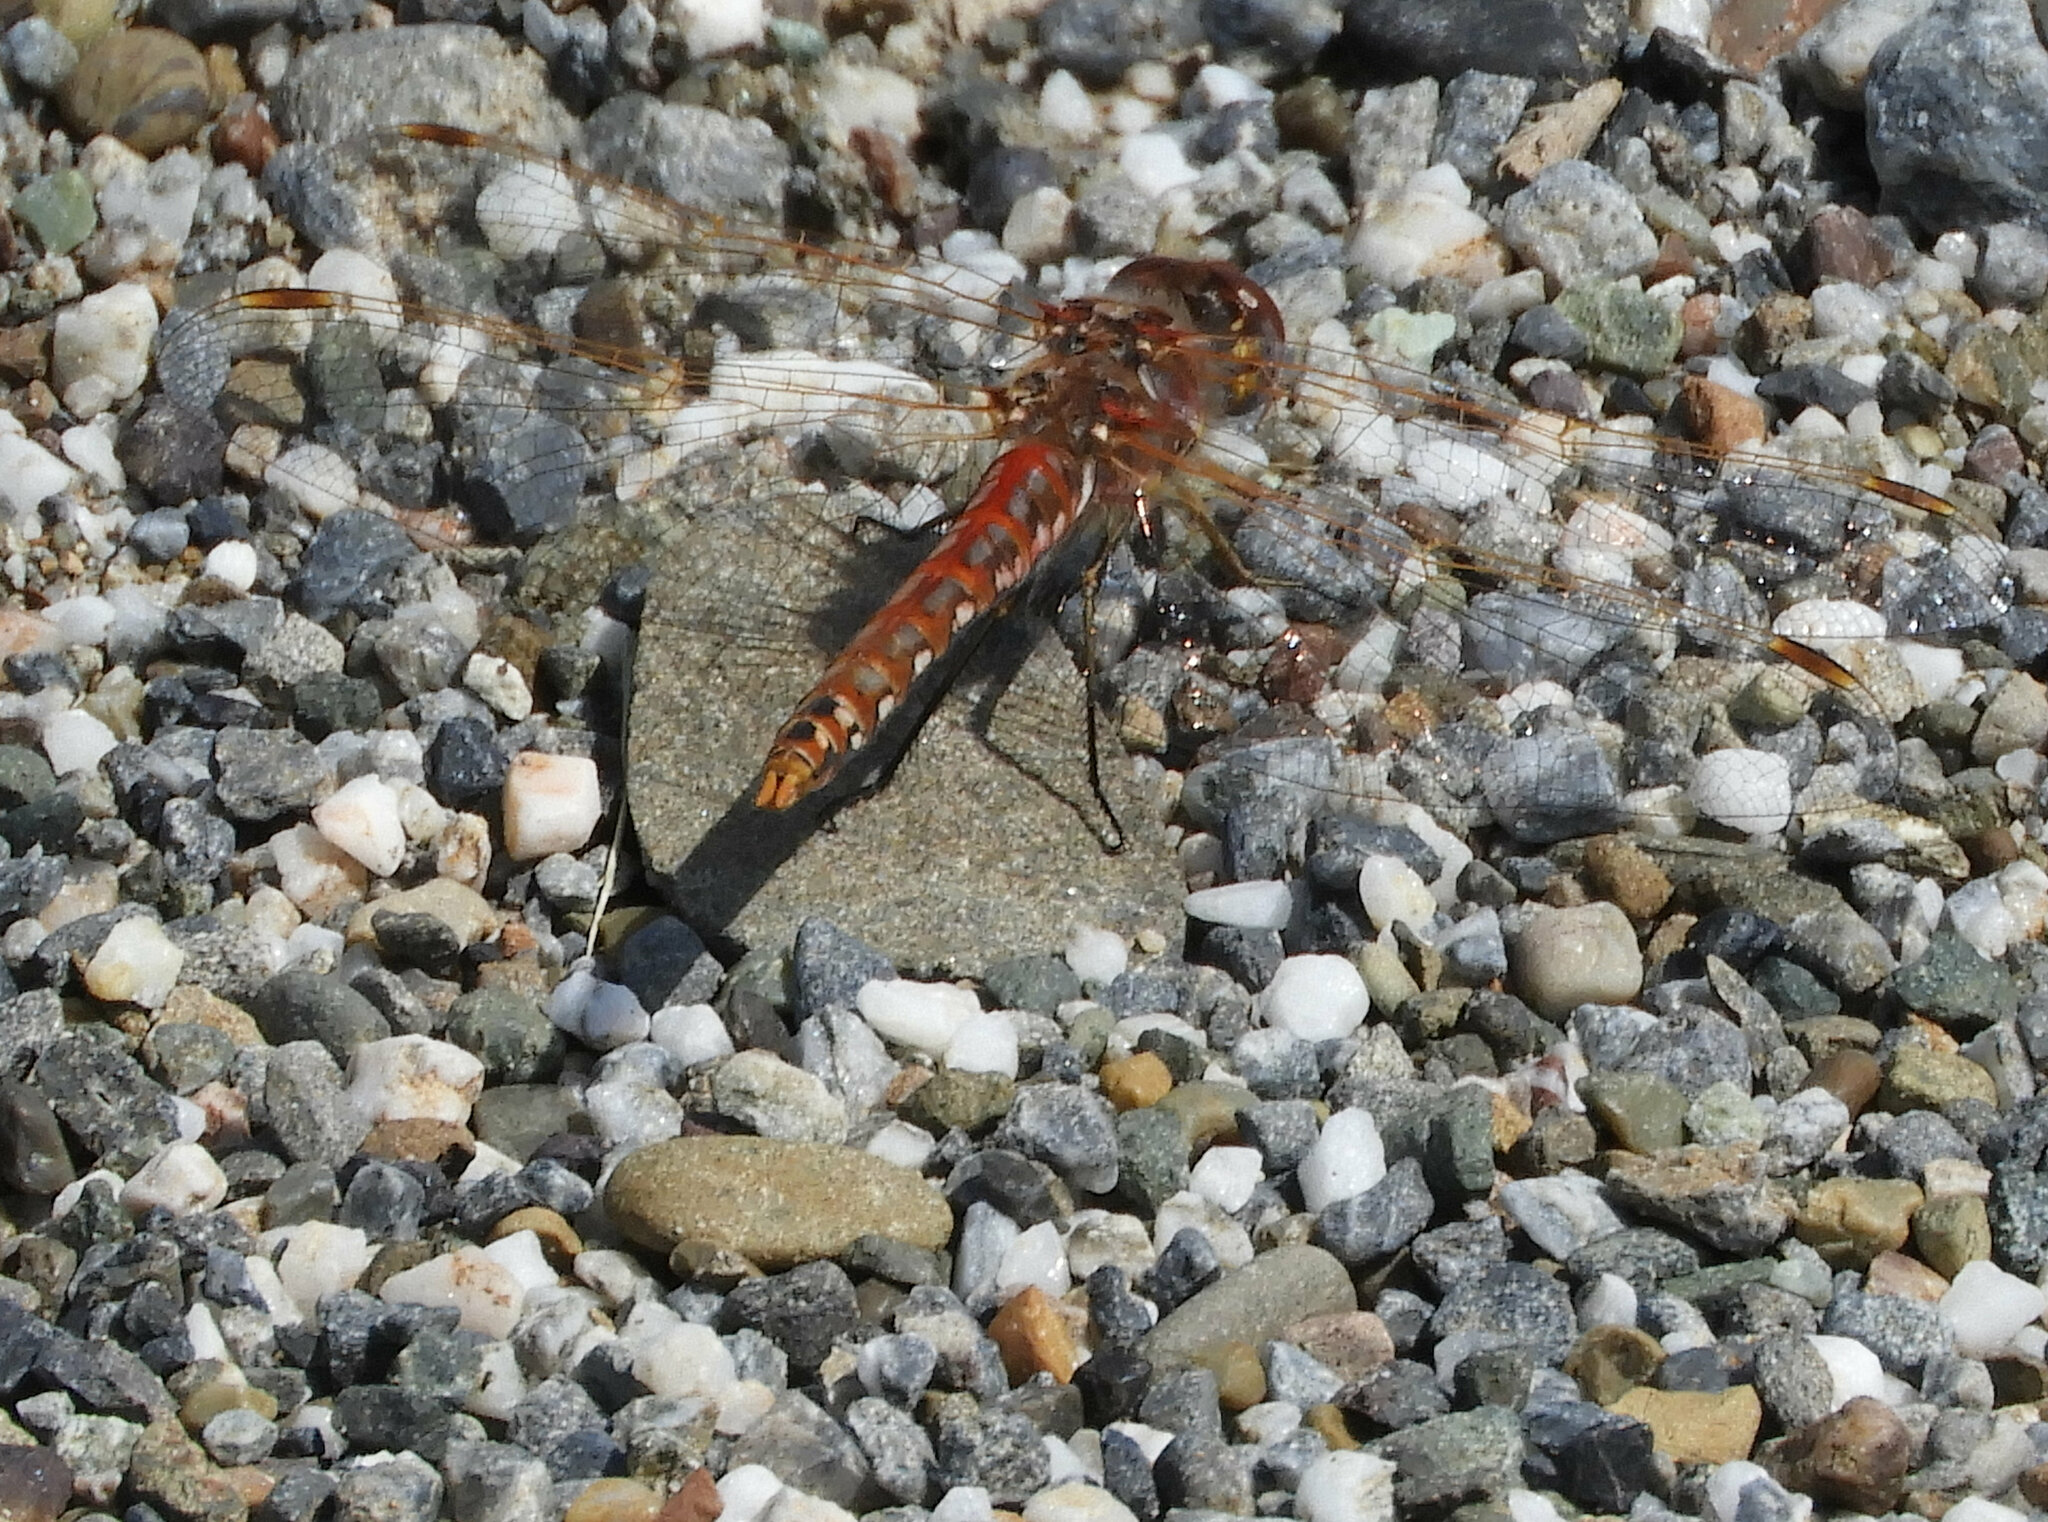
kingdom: Animalia
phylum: Arthropoda
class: Insecta
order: Odonata
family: Libellulidae
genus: Sympetrum
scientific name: Sympetrum corruptum
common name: Variegated meadowhawk
